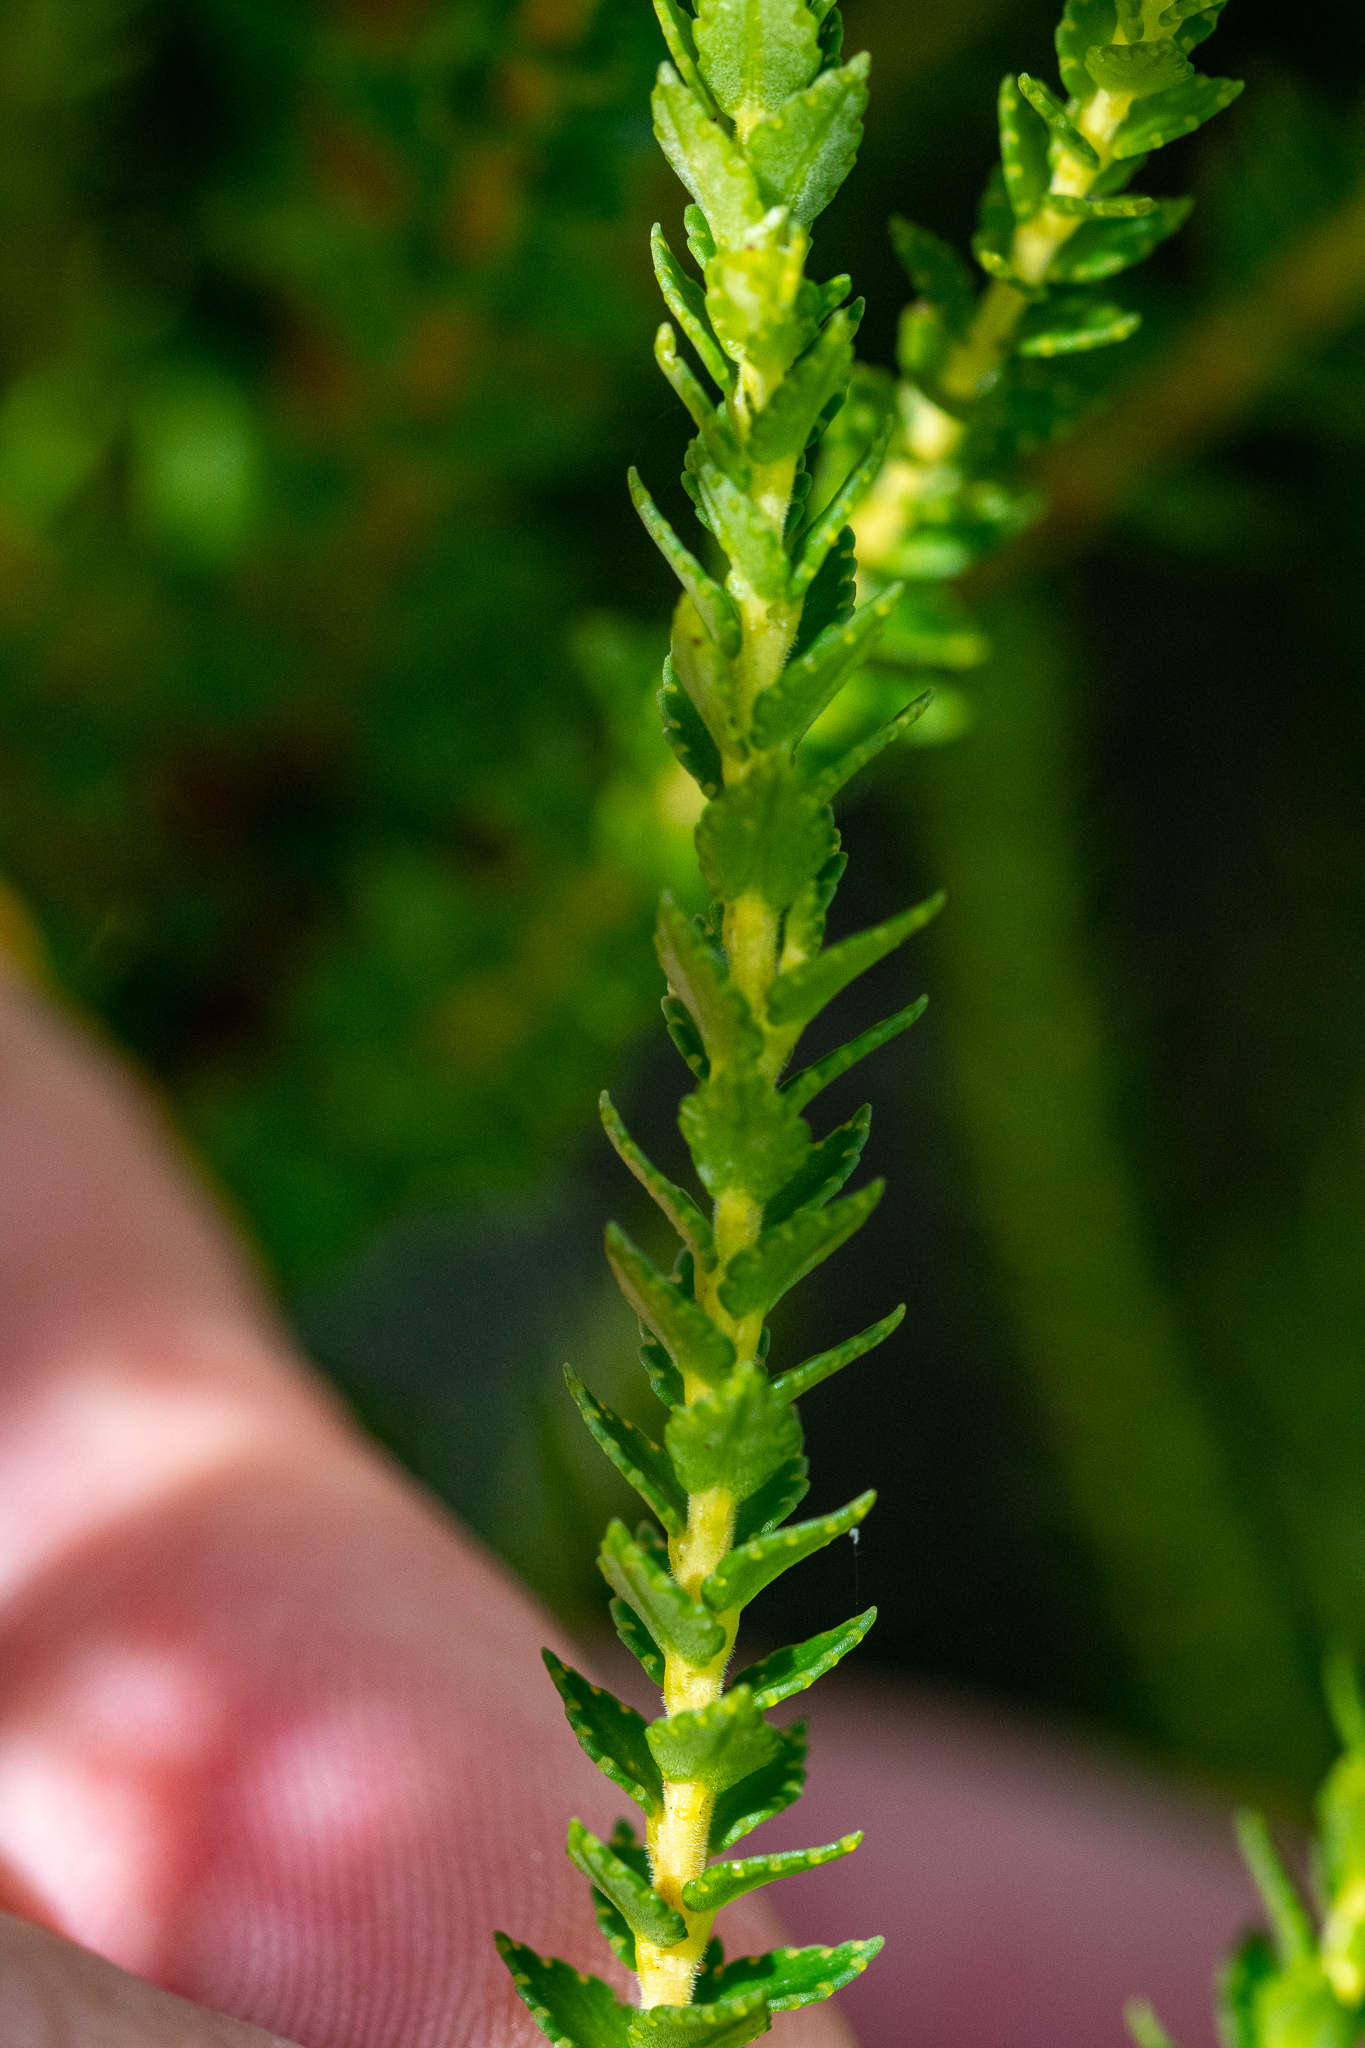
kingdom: Plantae
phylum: Tracheophyta
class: Magnoliopsida
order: Sapindales
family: Rutaceae
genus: Agathosma
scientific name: Agathosma tabularis
